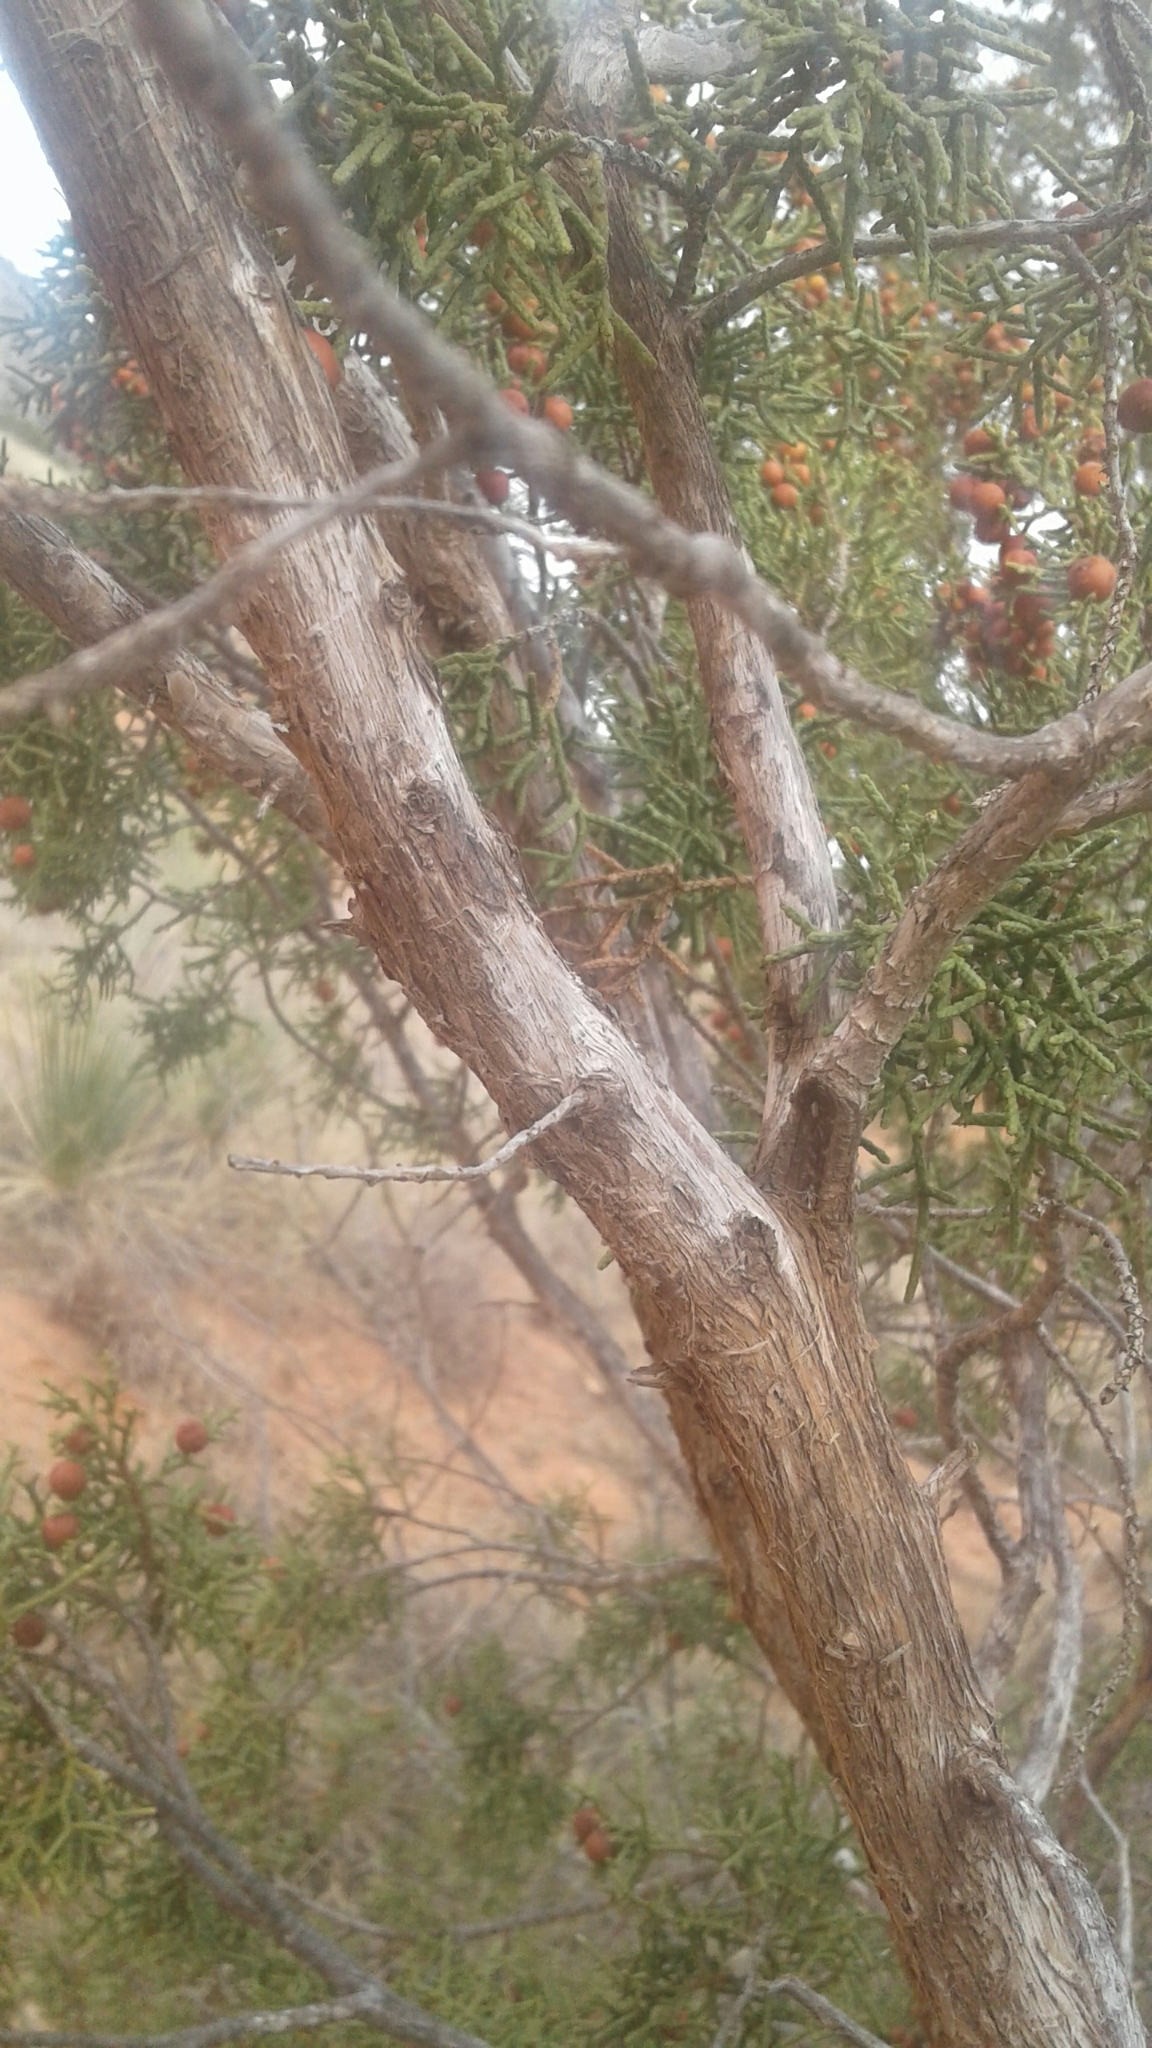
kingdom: Plantae
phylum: Tracheophyta
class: Pinopsida
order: Pinales
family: Cupressaceae
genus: Juniperus
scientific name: Juniperus pinchotii
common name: Pinchot juniper
